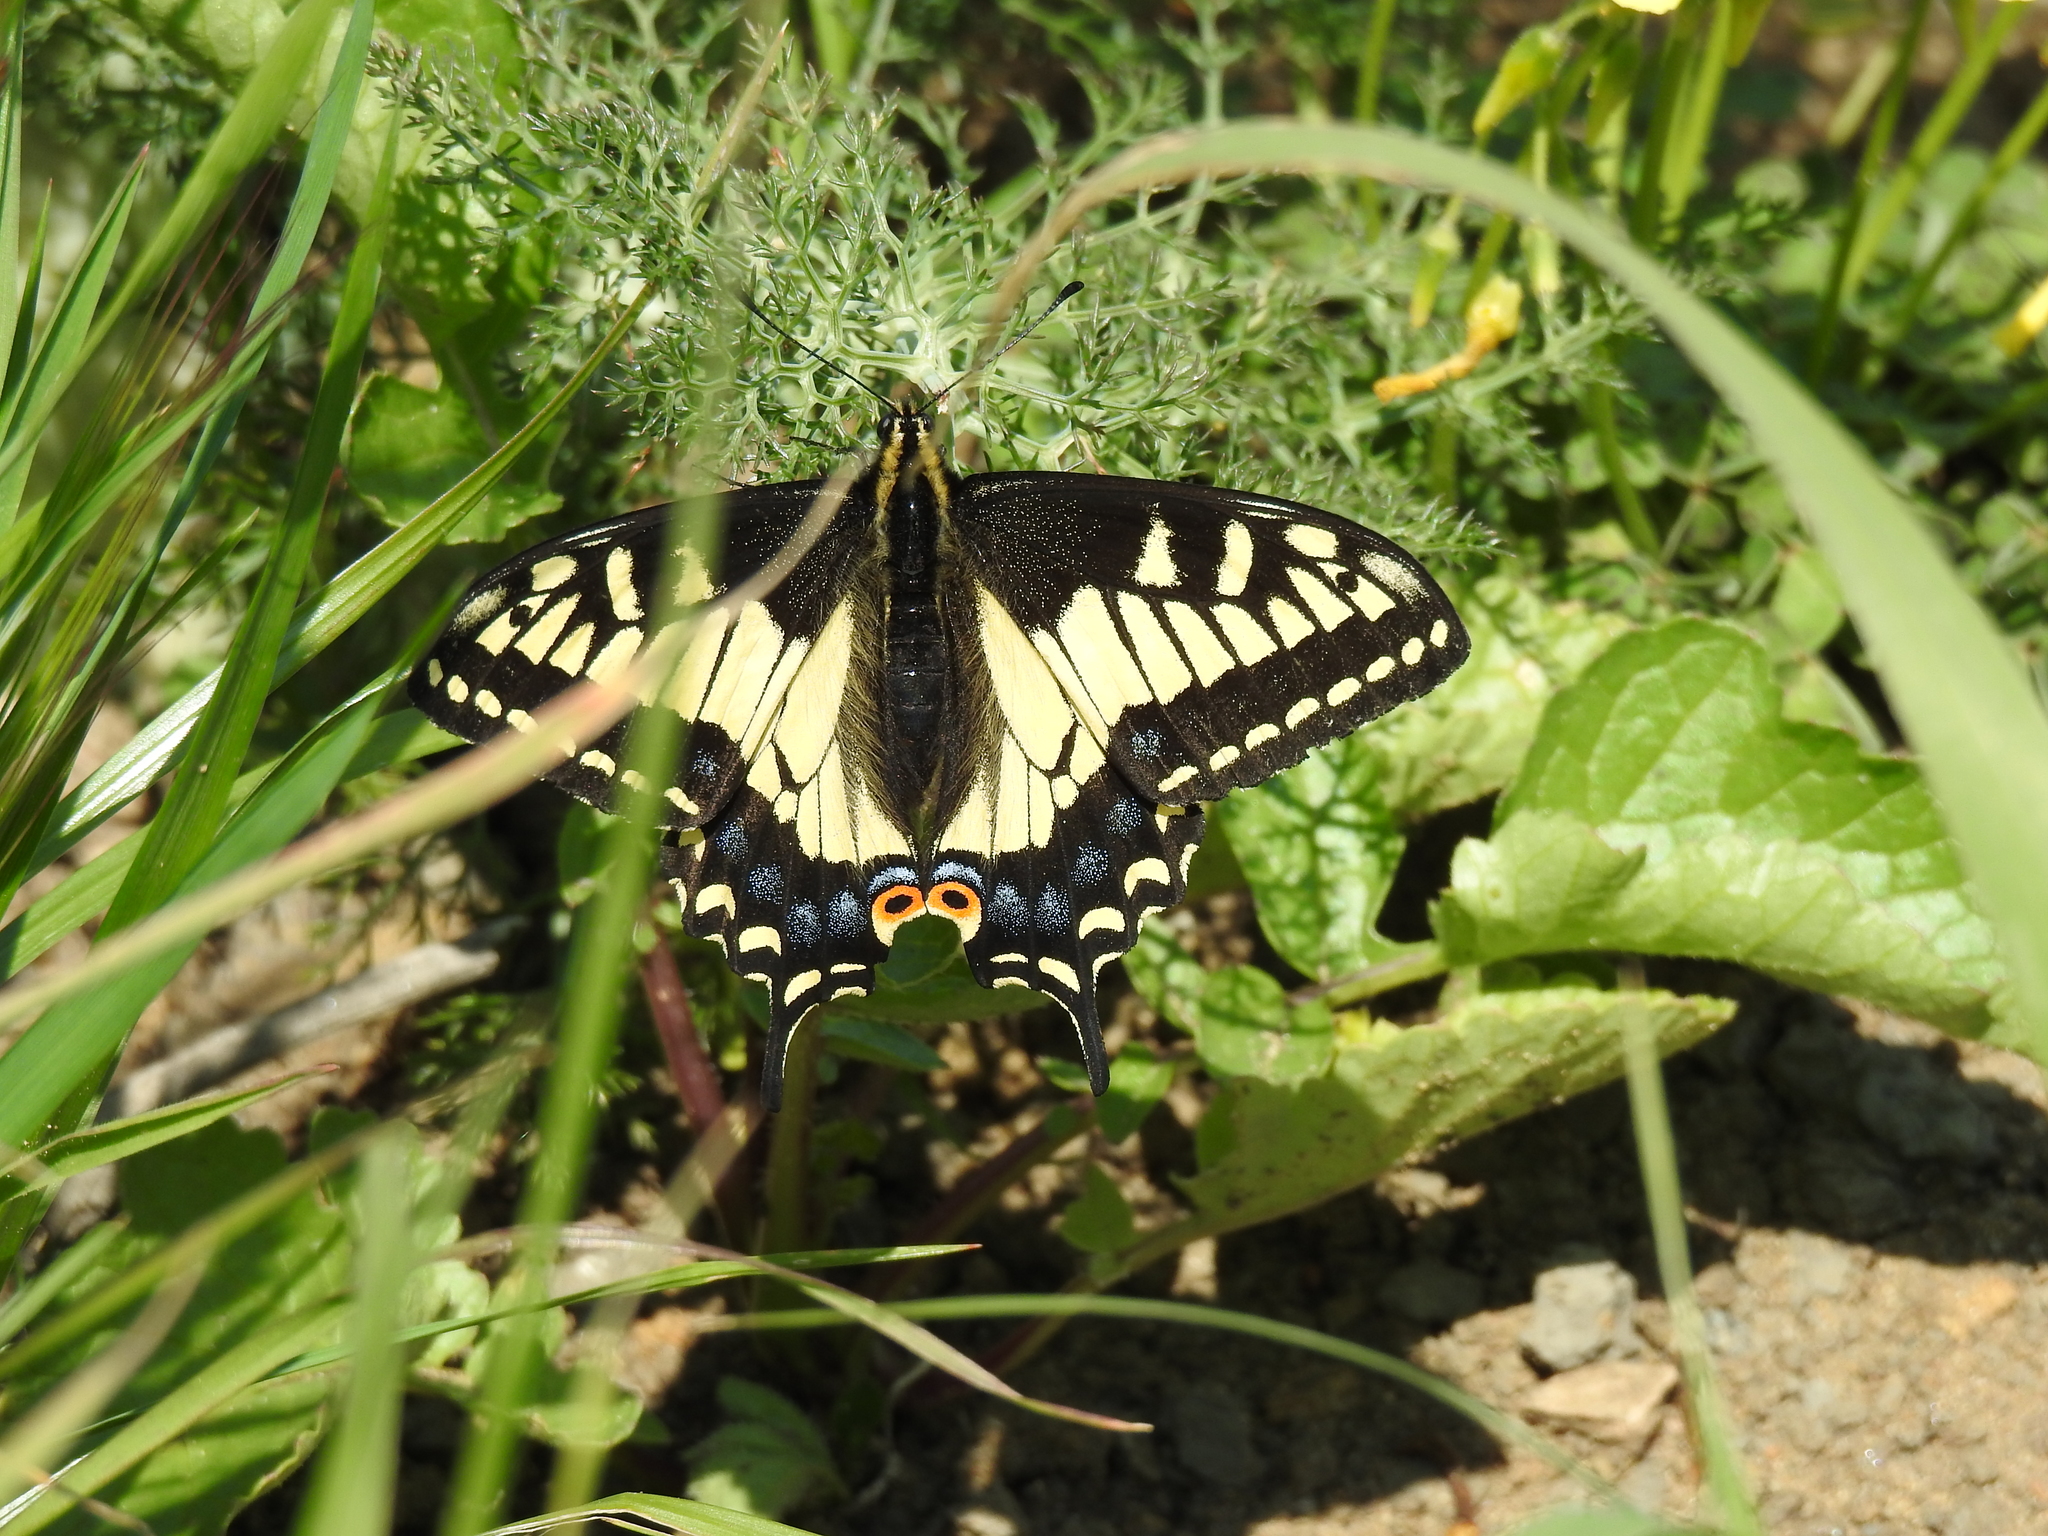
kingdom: Animalia
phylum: Arthropoda
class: Insecta
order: Lepidoptera
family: Papilionidae
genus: Papilio
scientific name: Papilio zelicaon
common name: Anise swallowtail
